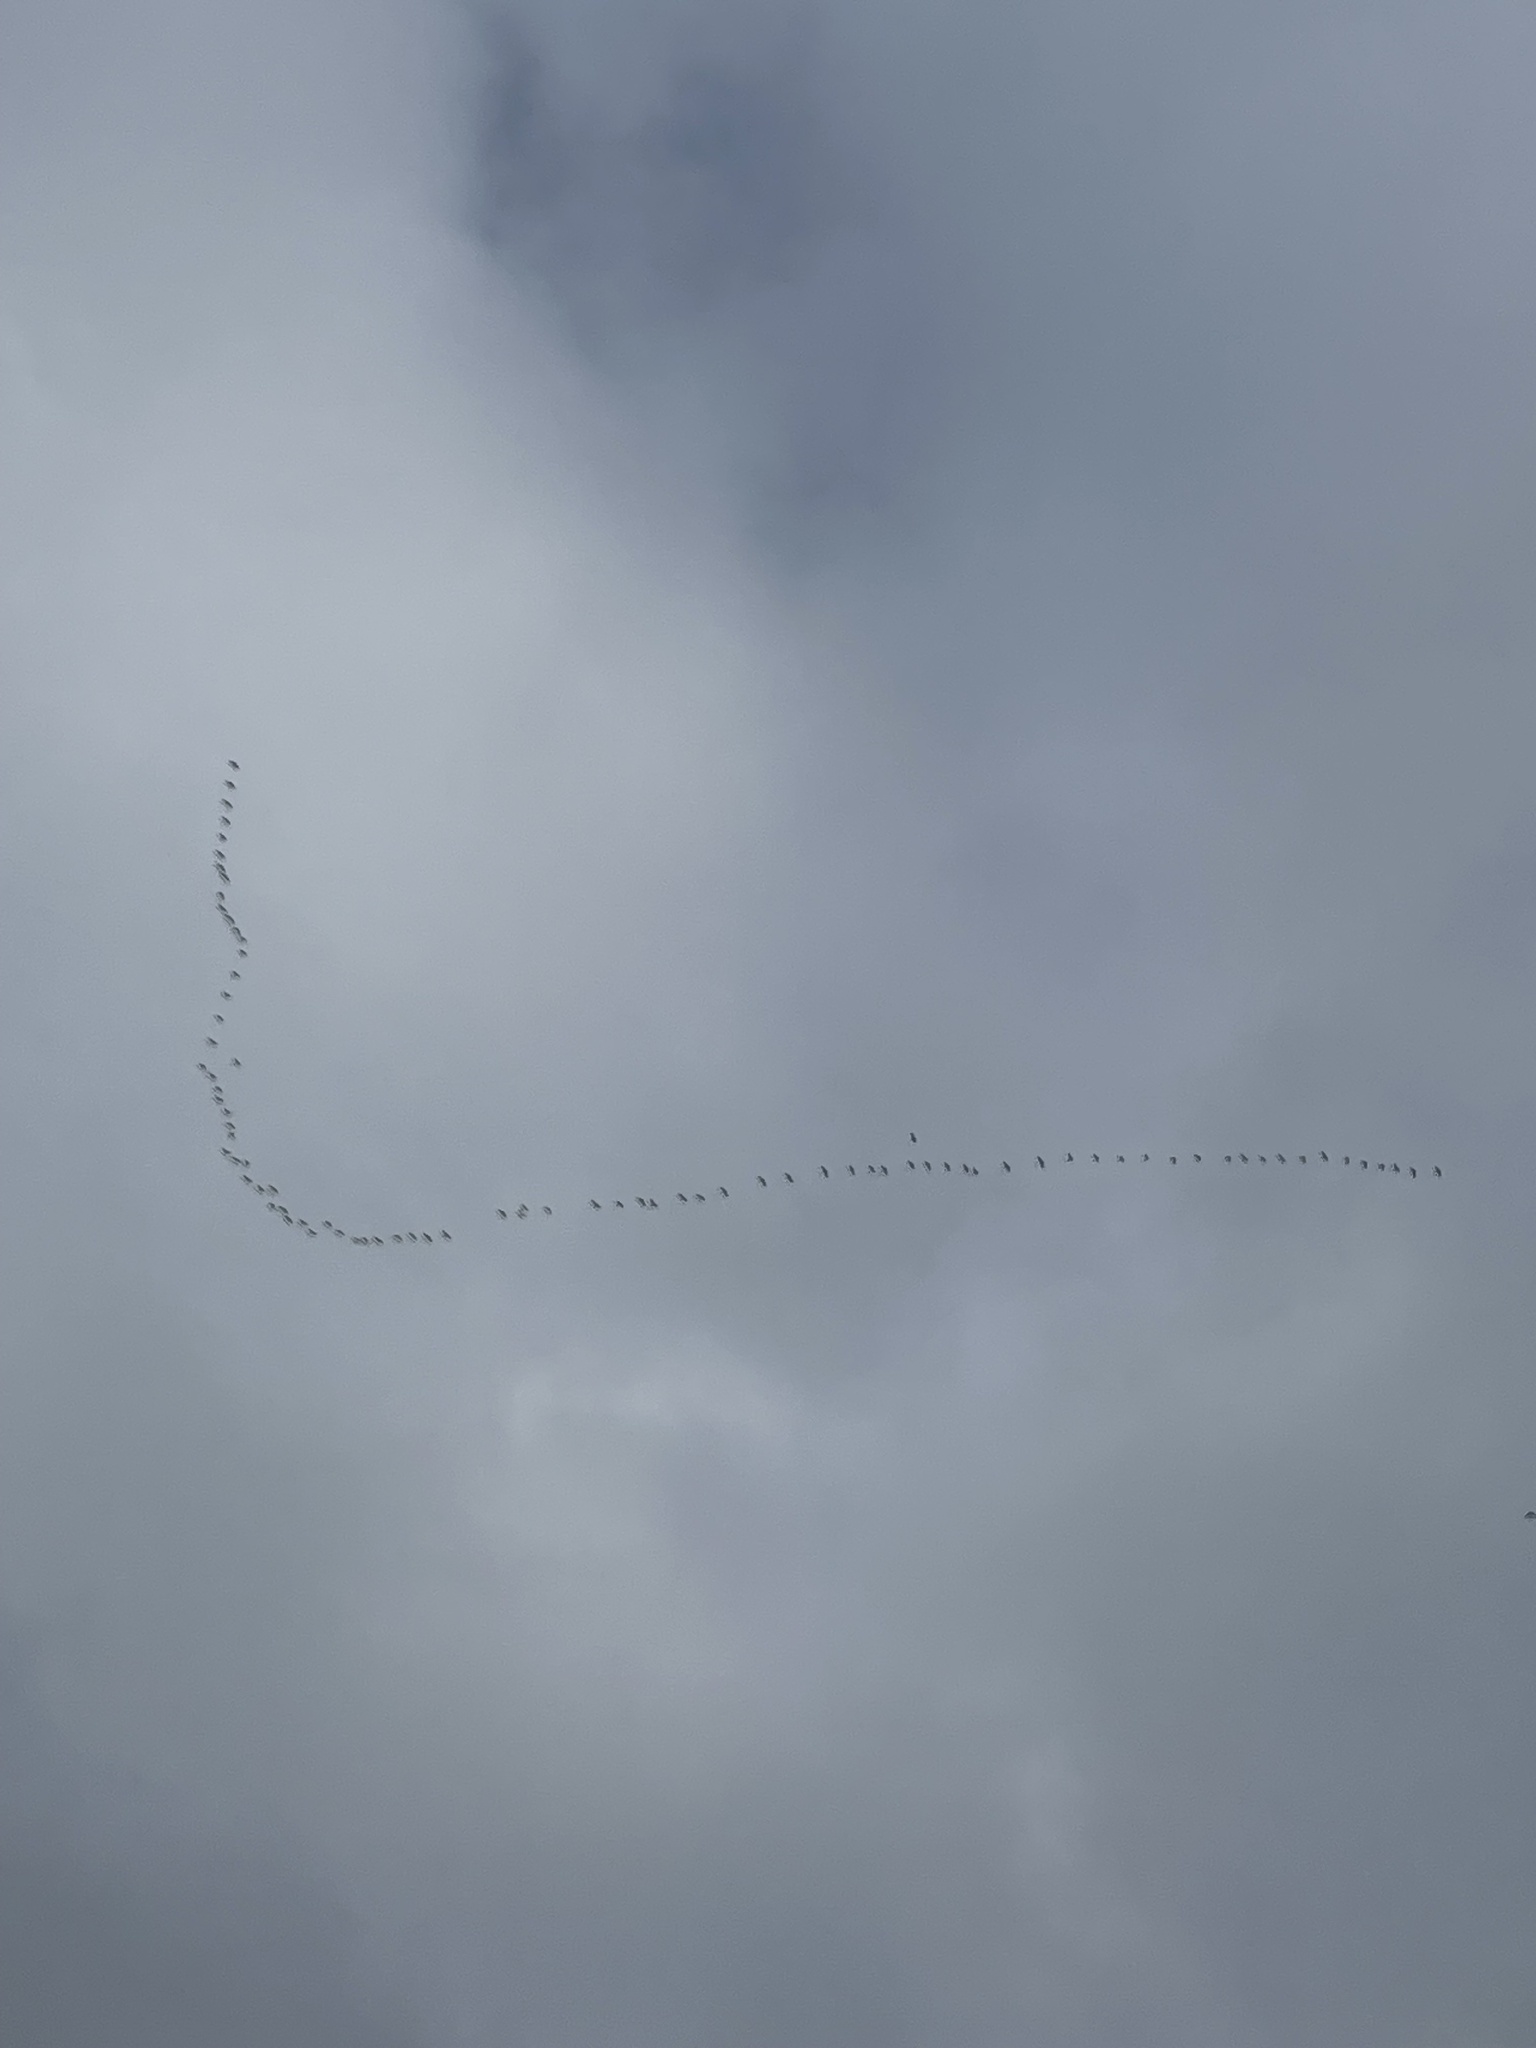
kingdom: Animalia
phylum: Chordata
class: Aves
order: Gruiformes
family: Gruidae
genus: Grus
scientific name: Grus canadensis
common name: Sandhill crane
